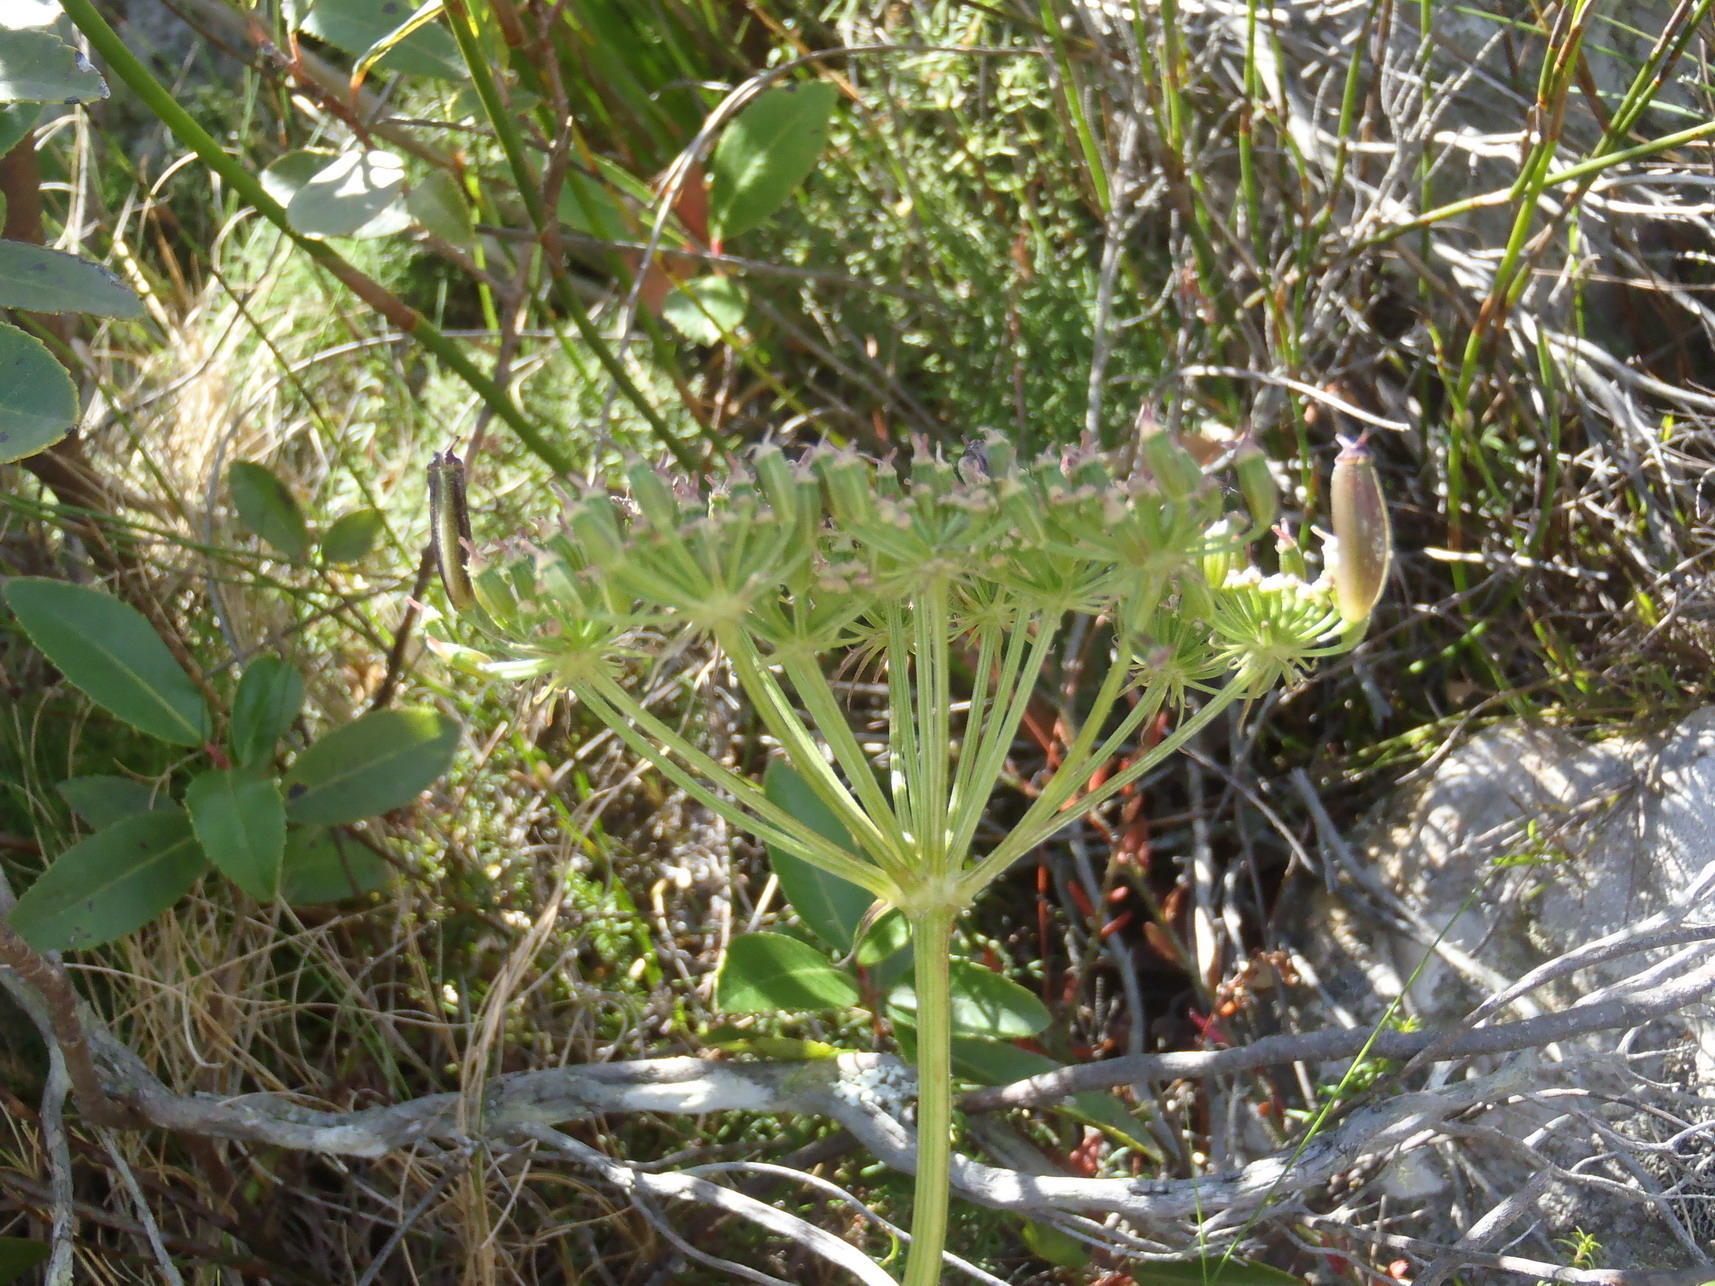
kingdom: Plantae
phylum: Tracheophyta
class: Magnoliopsida
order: Apiales
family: Apiaceae
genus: Nanobubon
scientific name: Nanobubon capillaceum
